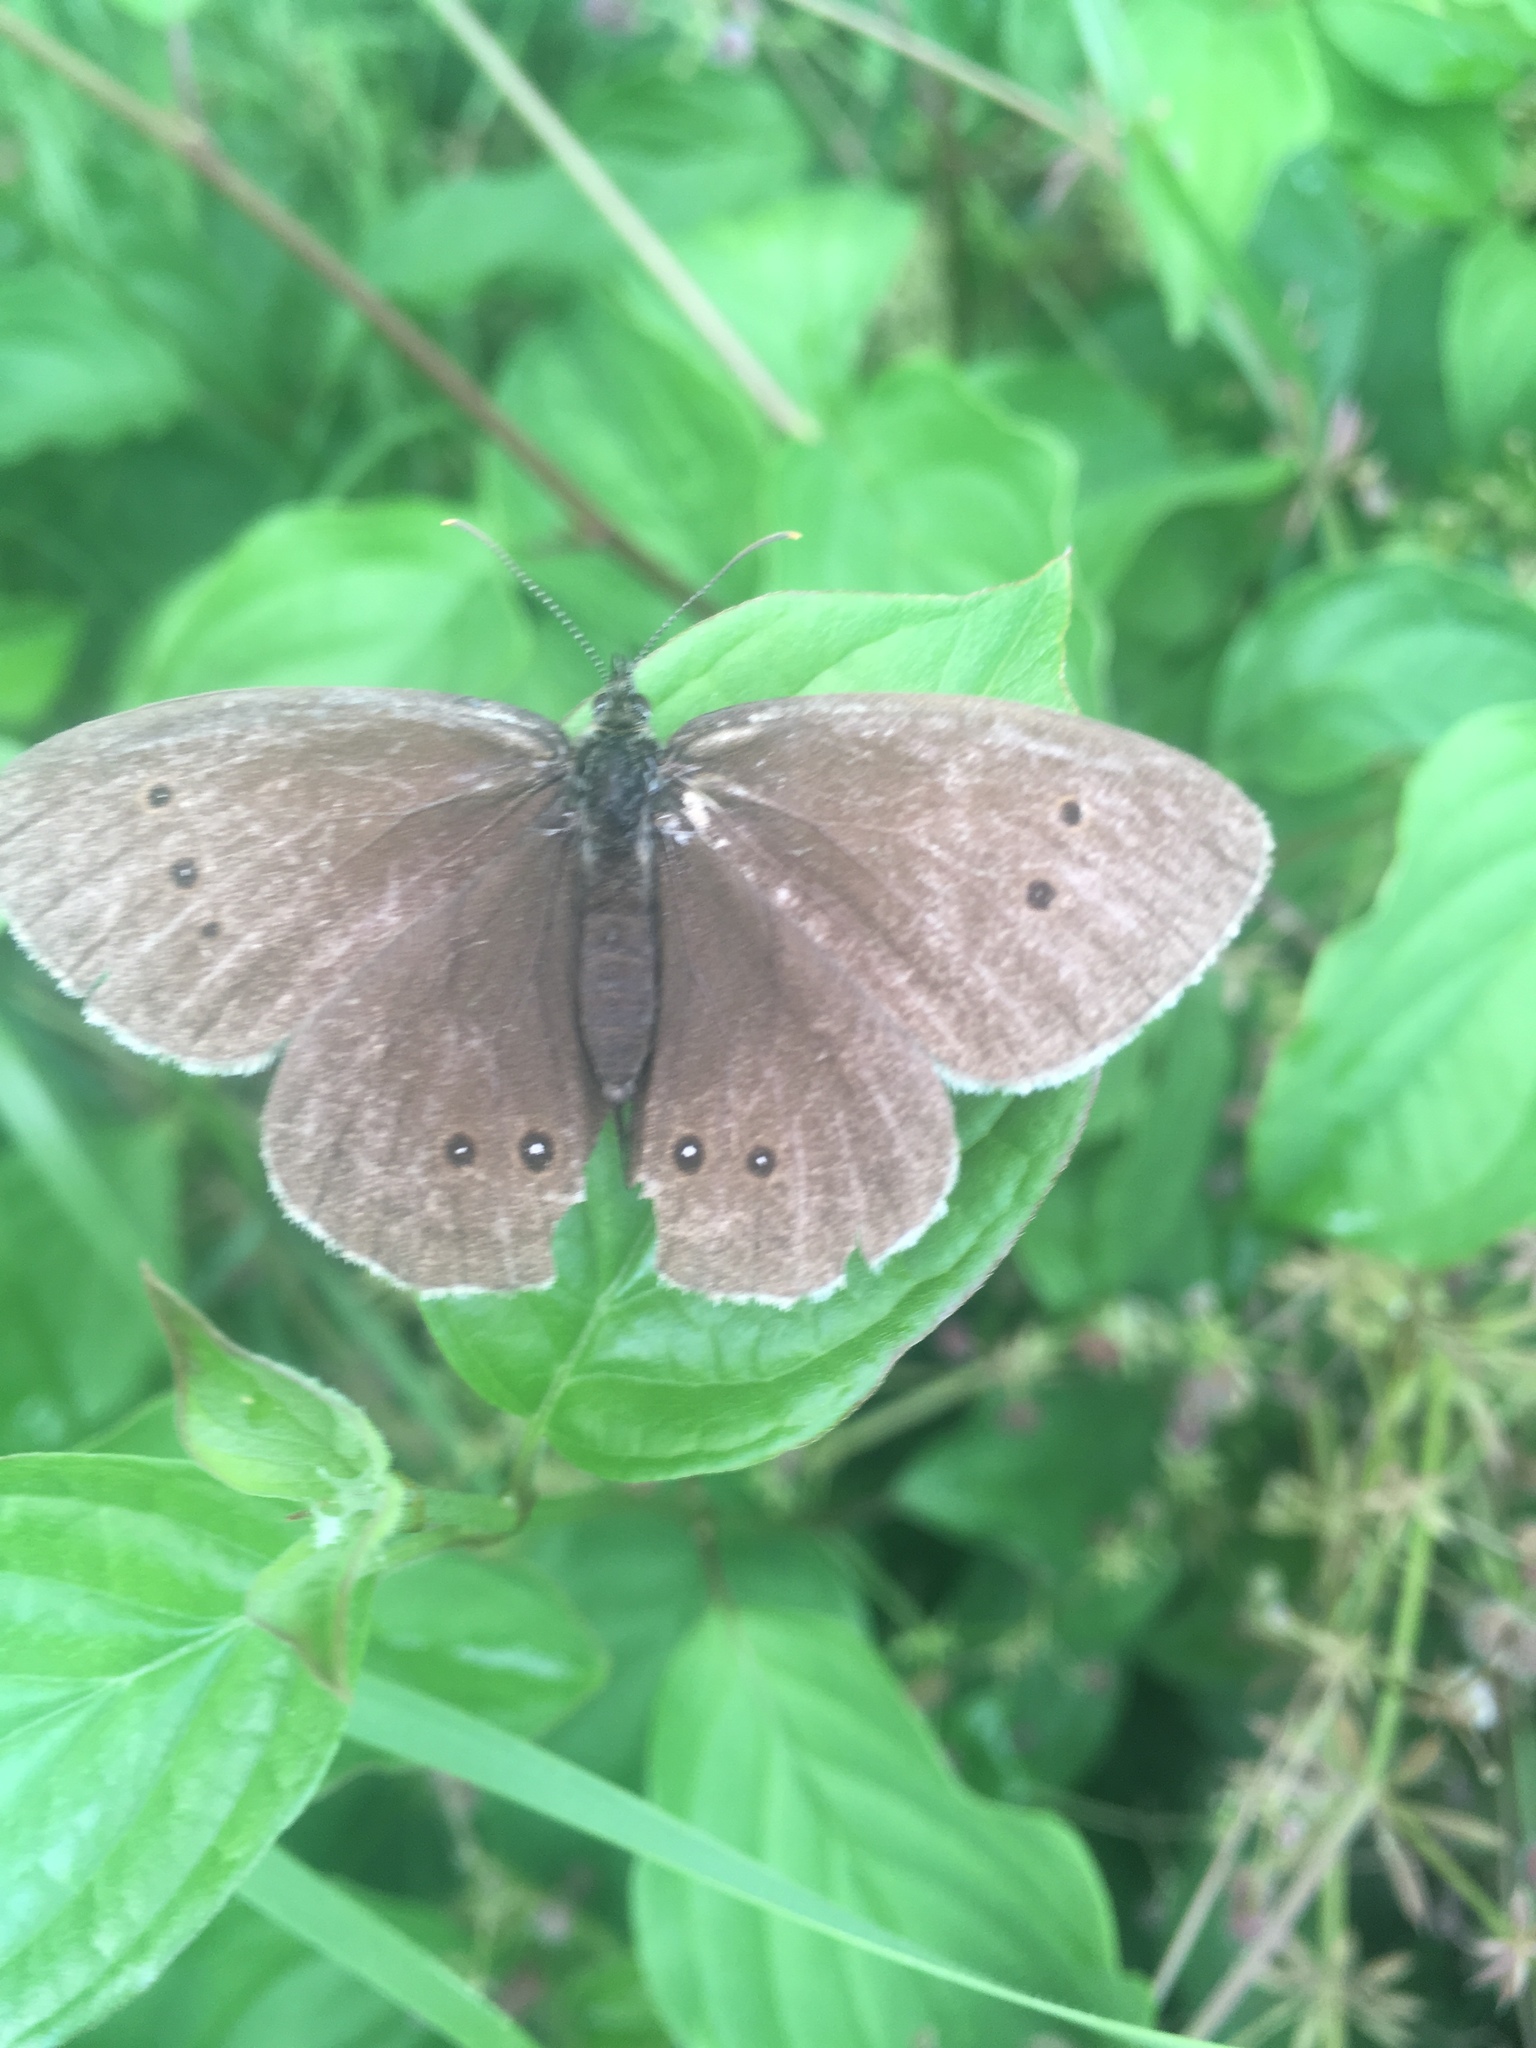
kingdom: Animalia
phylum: Arthropoda
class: Insecta
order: Lepidoptera
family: Nymphalidae
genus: Aphantopus
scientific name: Aphantopus hyperantus
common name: Ringlet
